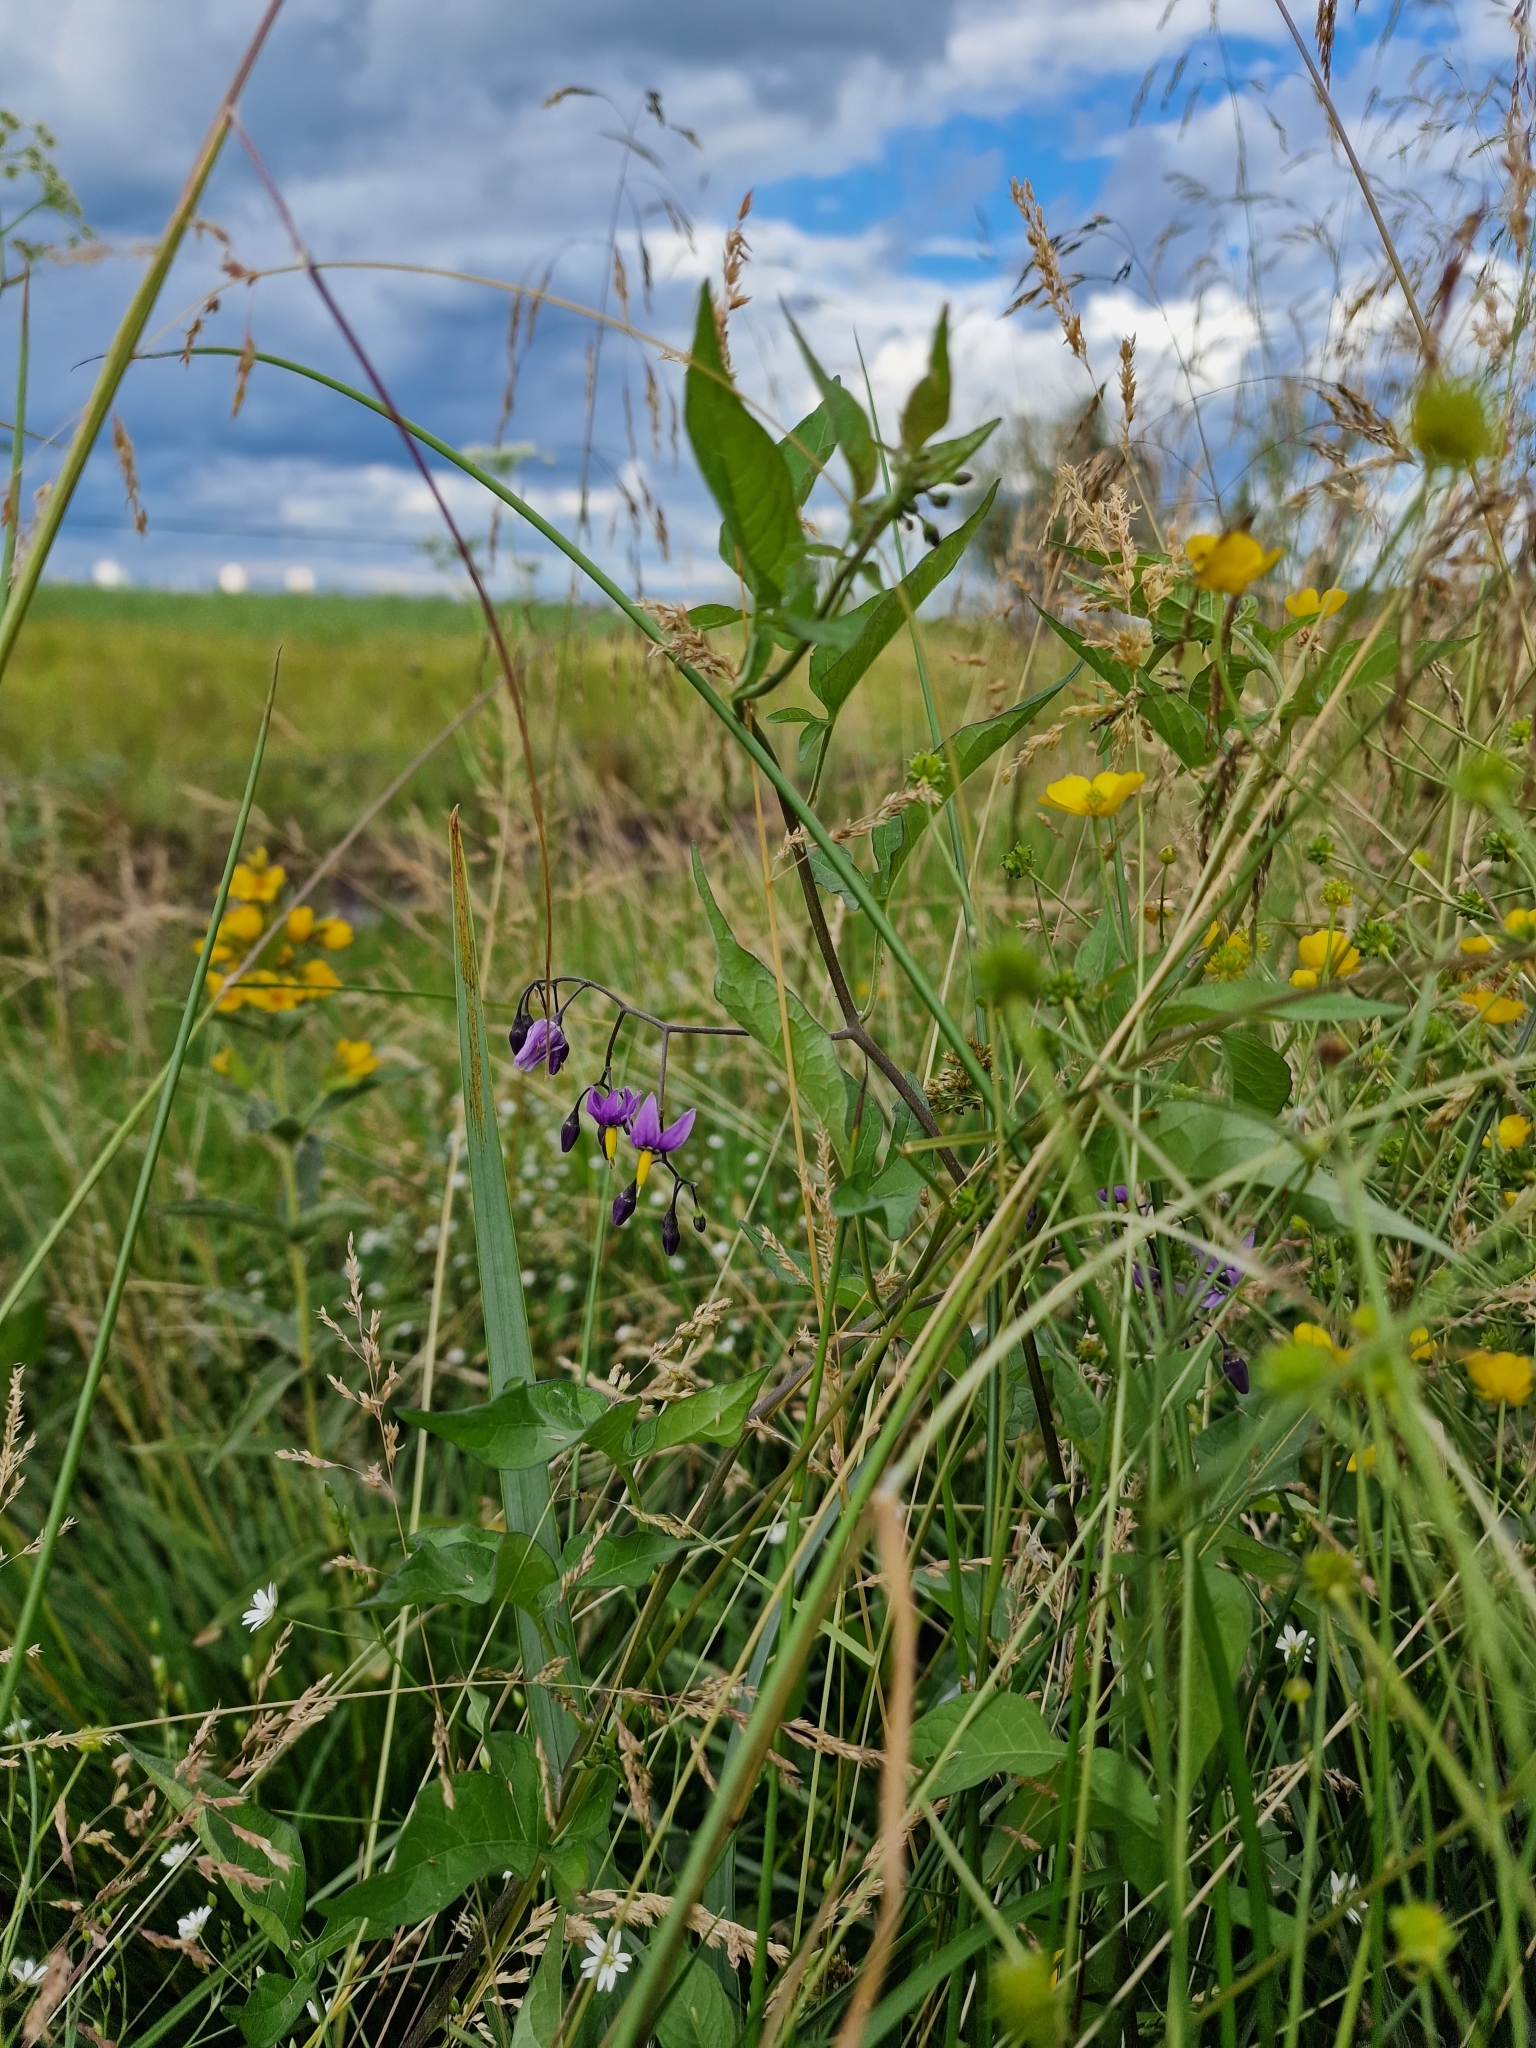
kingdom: Plantae
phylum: Tracheophyta
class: Magnoliopsida
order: Solanales
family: Solanaceae
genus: Solanum
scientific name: Solanum dulcamara
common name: Climbing nightshade
